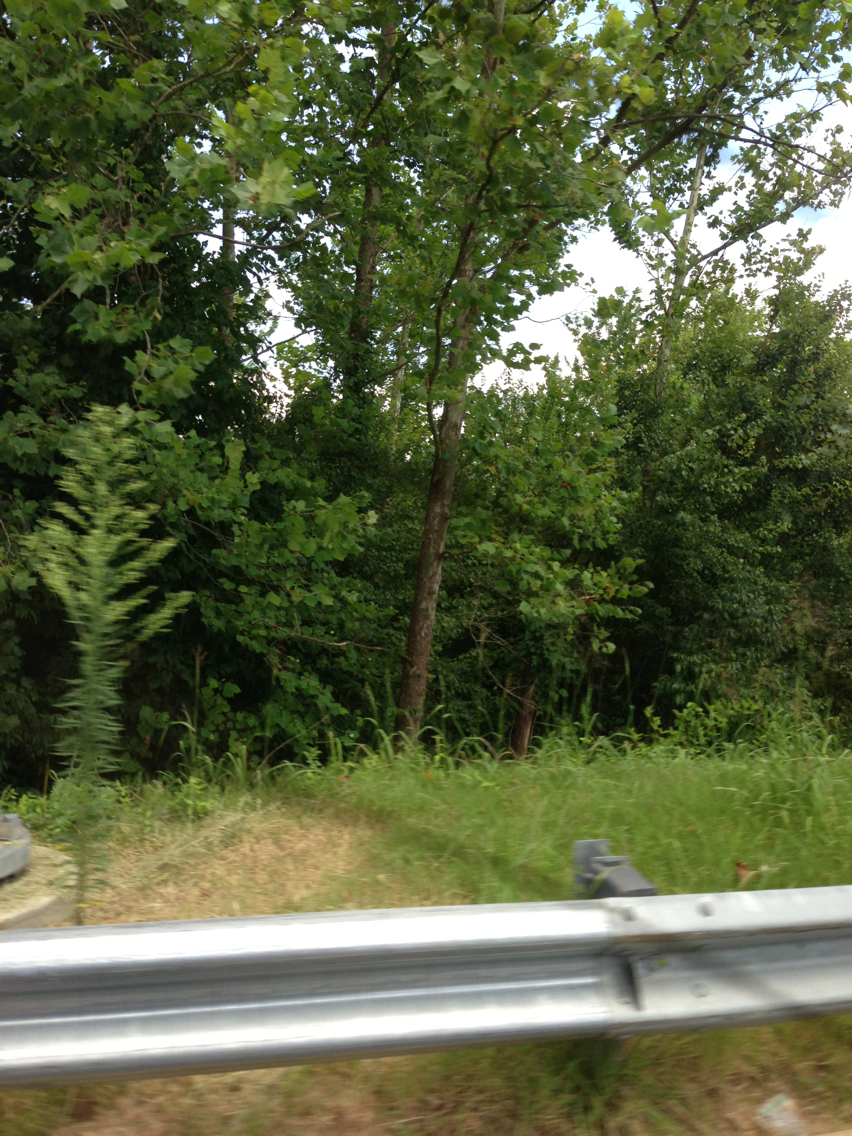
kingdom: Plantae
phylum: Tracheophyta
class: Magnoliopsida
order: Proteales
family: Platanaceae
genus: Platanus
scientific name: Platanus occidentalis
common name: American sycamore
